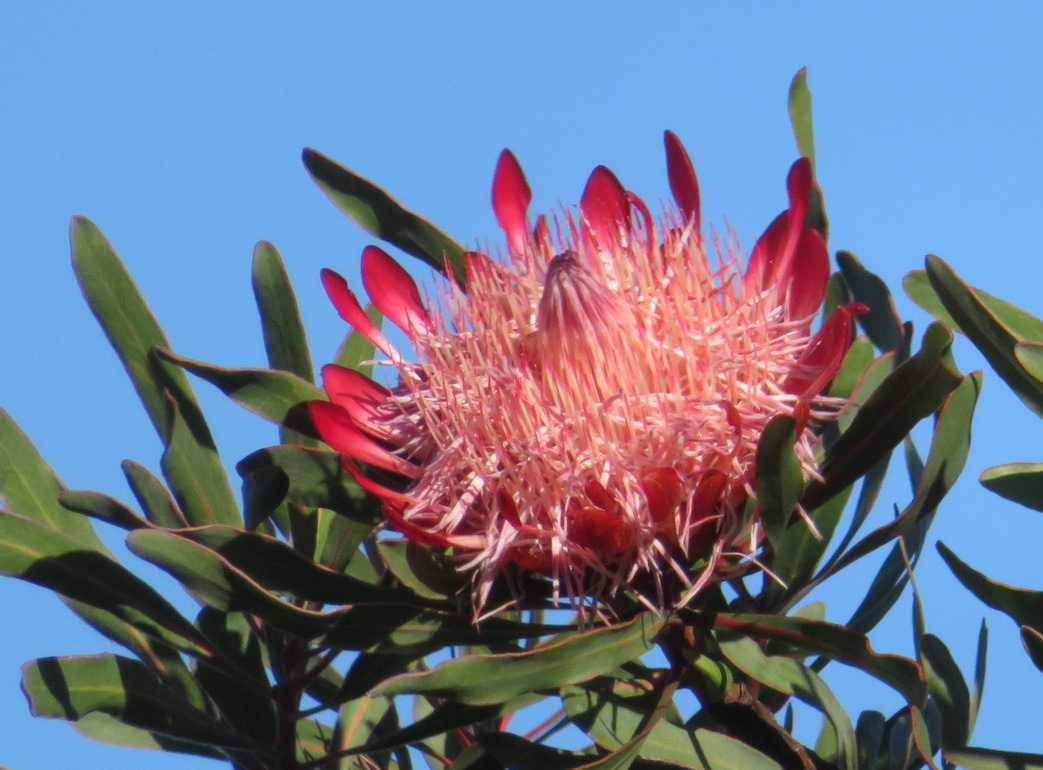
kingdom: Plantae
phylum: Tracheophyta
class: Magnoliopsida
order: Proteales
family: Proteaceae
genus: Protea
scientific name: Protea susannae
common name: Foetid-leaf sugarbush
